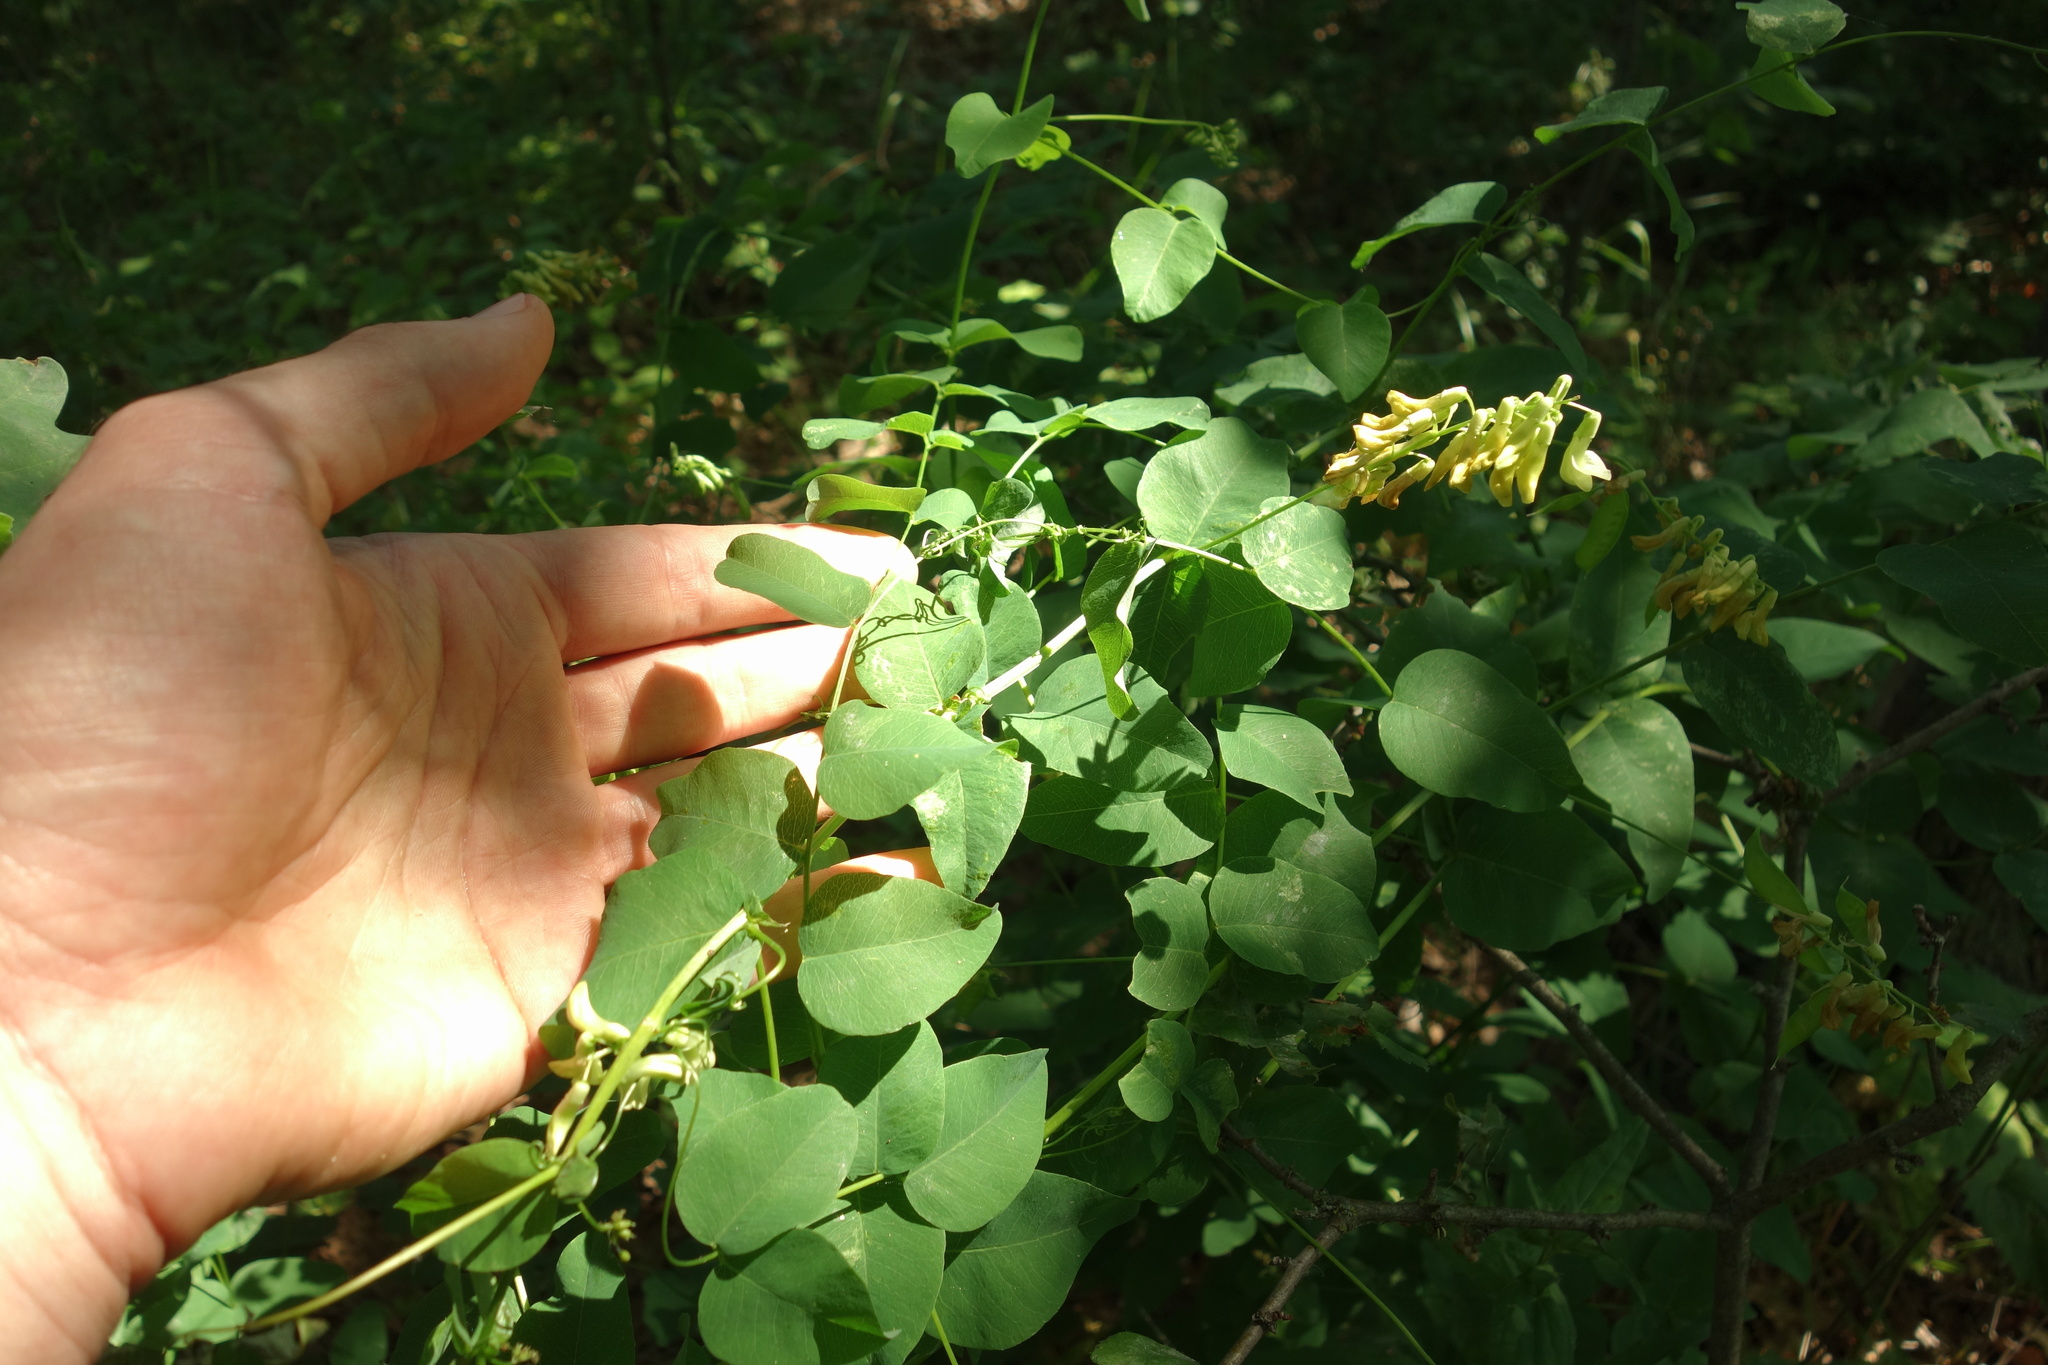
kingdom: Plantae
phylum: Tracheophyta
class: Magnoliopsida
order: Fabales
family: Fabaceae
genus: Vicia
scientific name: Vicia pisiformis
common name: Pale-flower vetch
